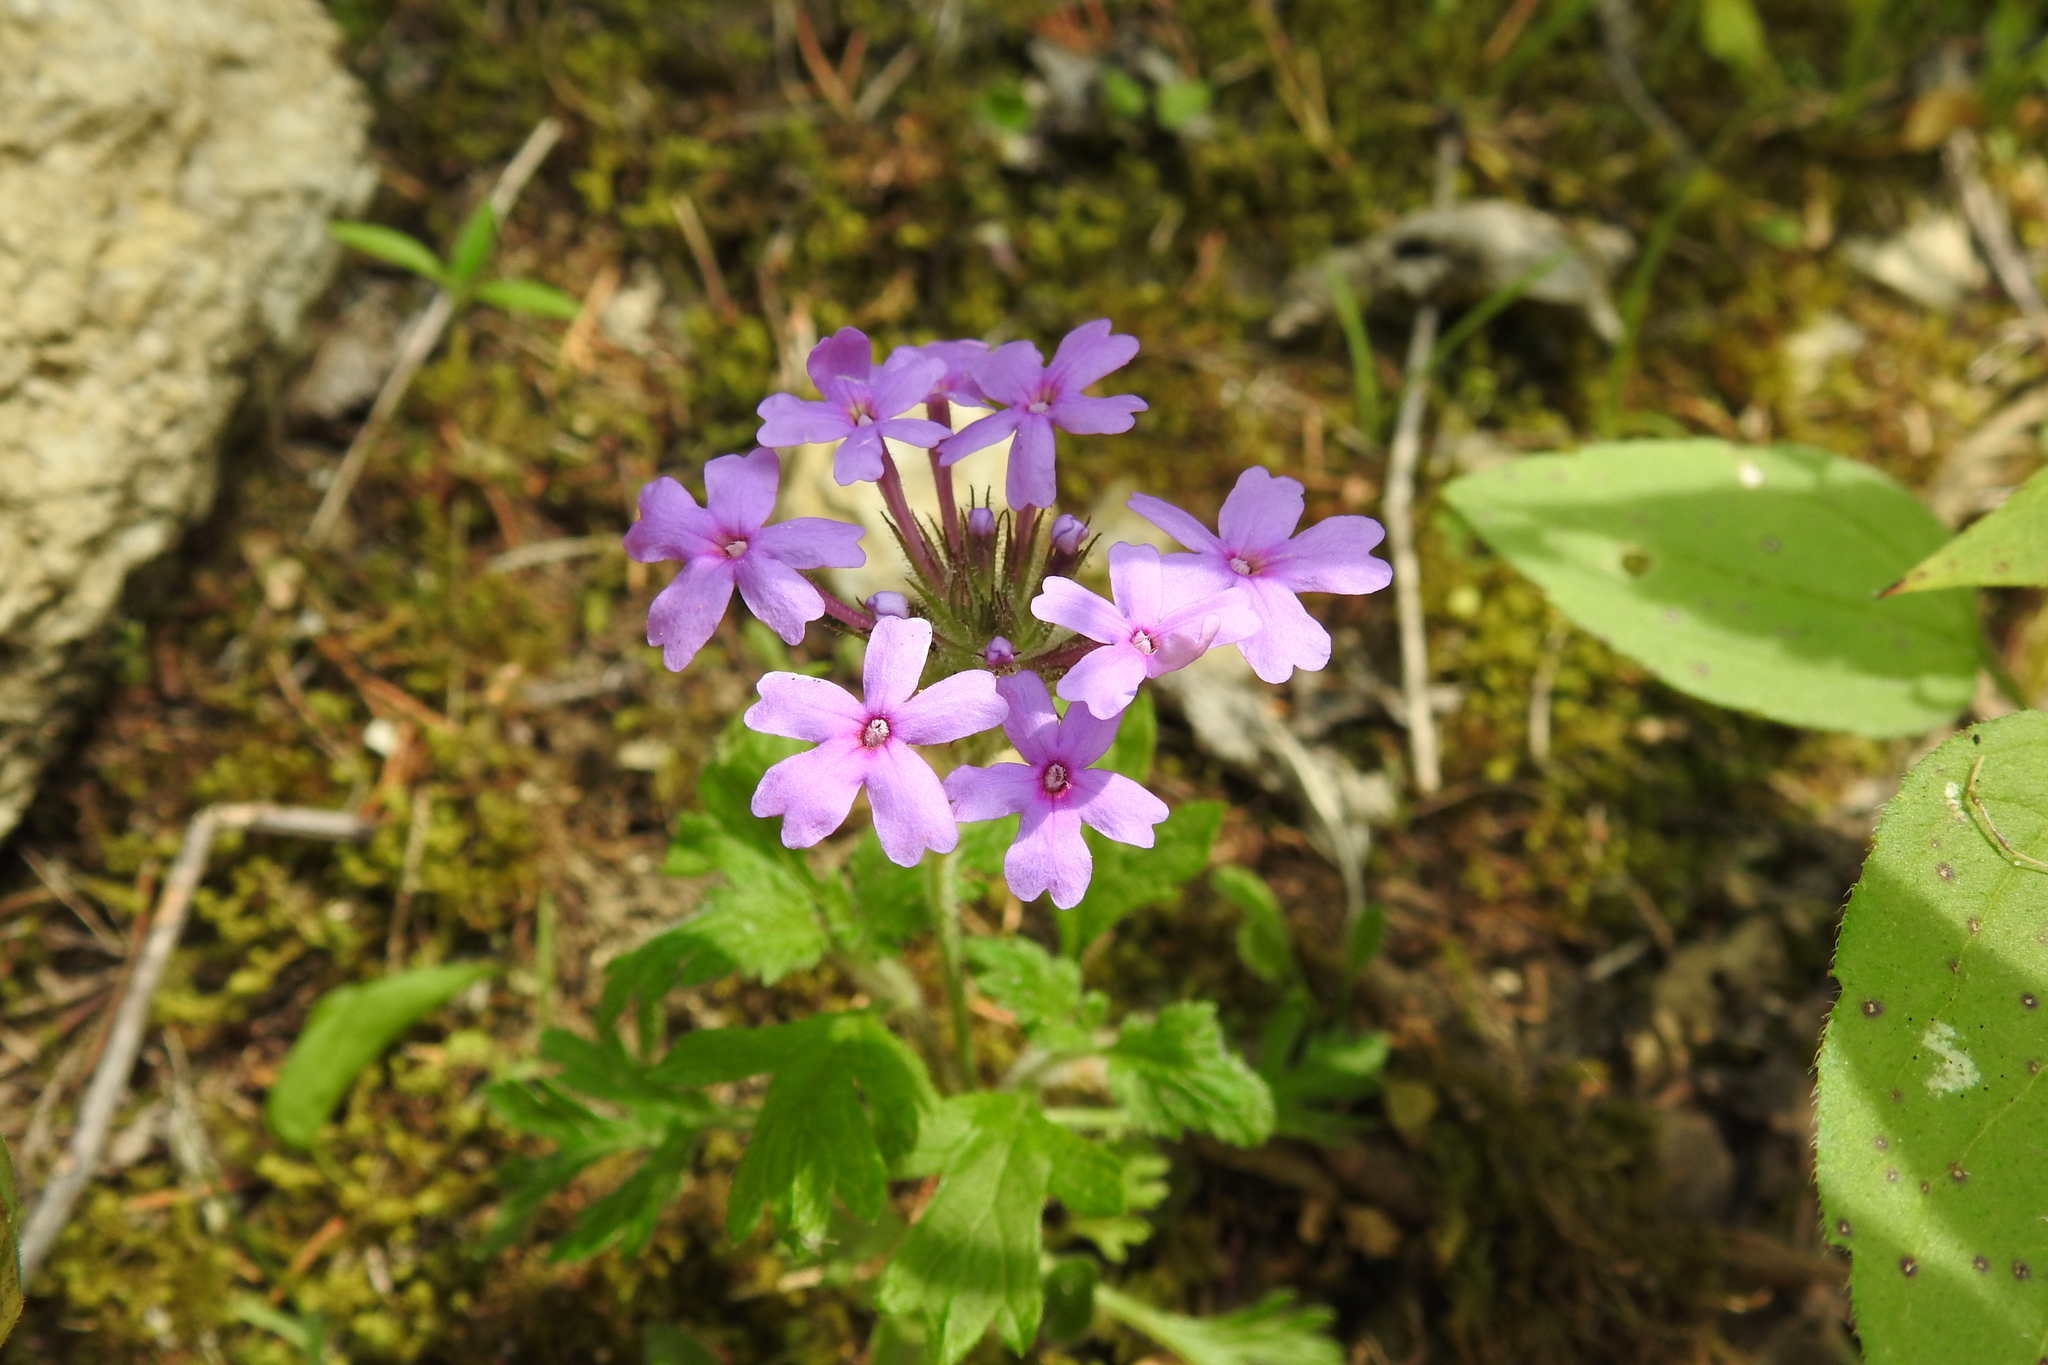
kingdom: Plantae
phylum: Tracheophyta
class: Magnoliopsida
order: Lamiales
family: Verbenaceae
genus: Verbena
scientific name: Verbena canadensis
